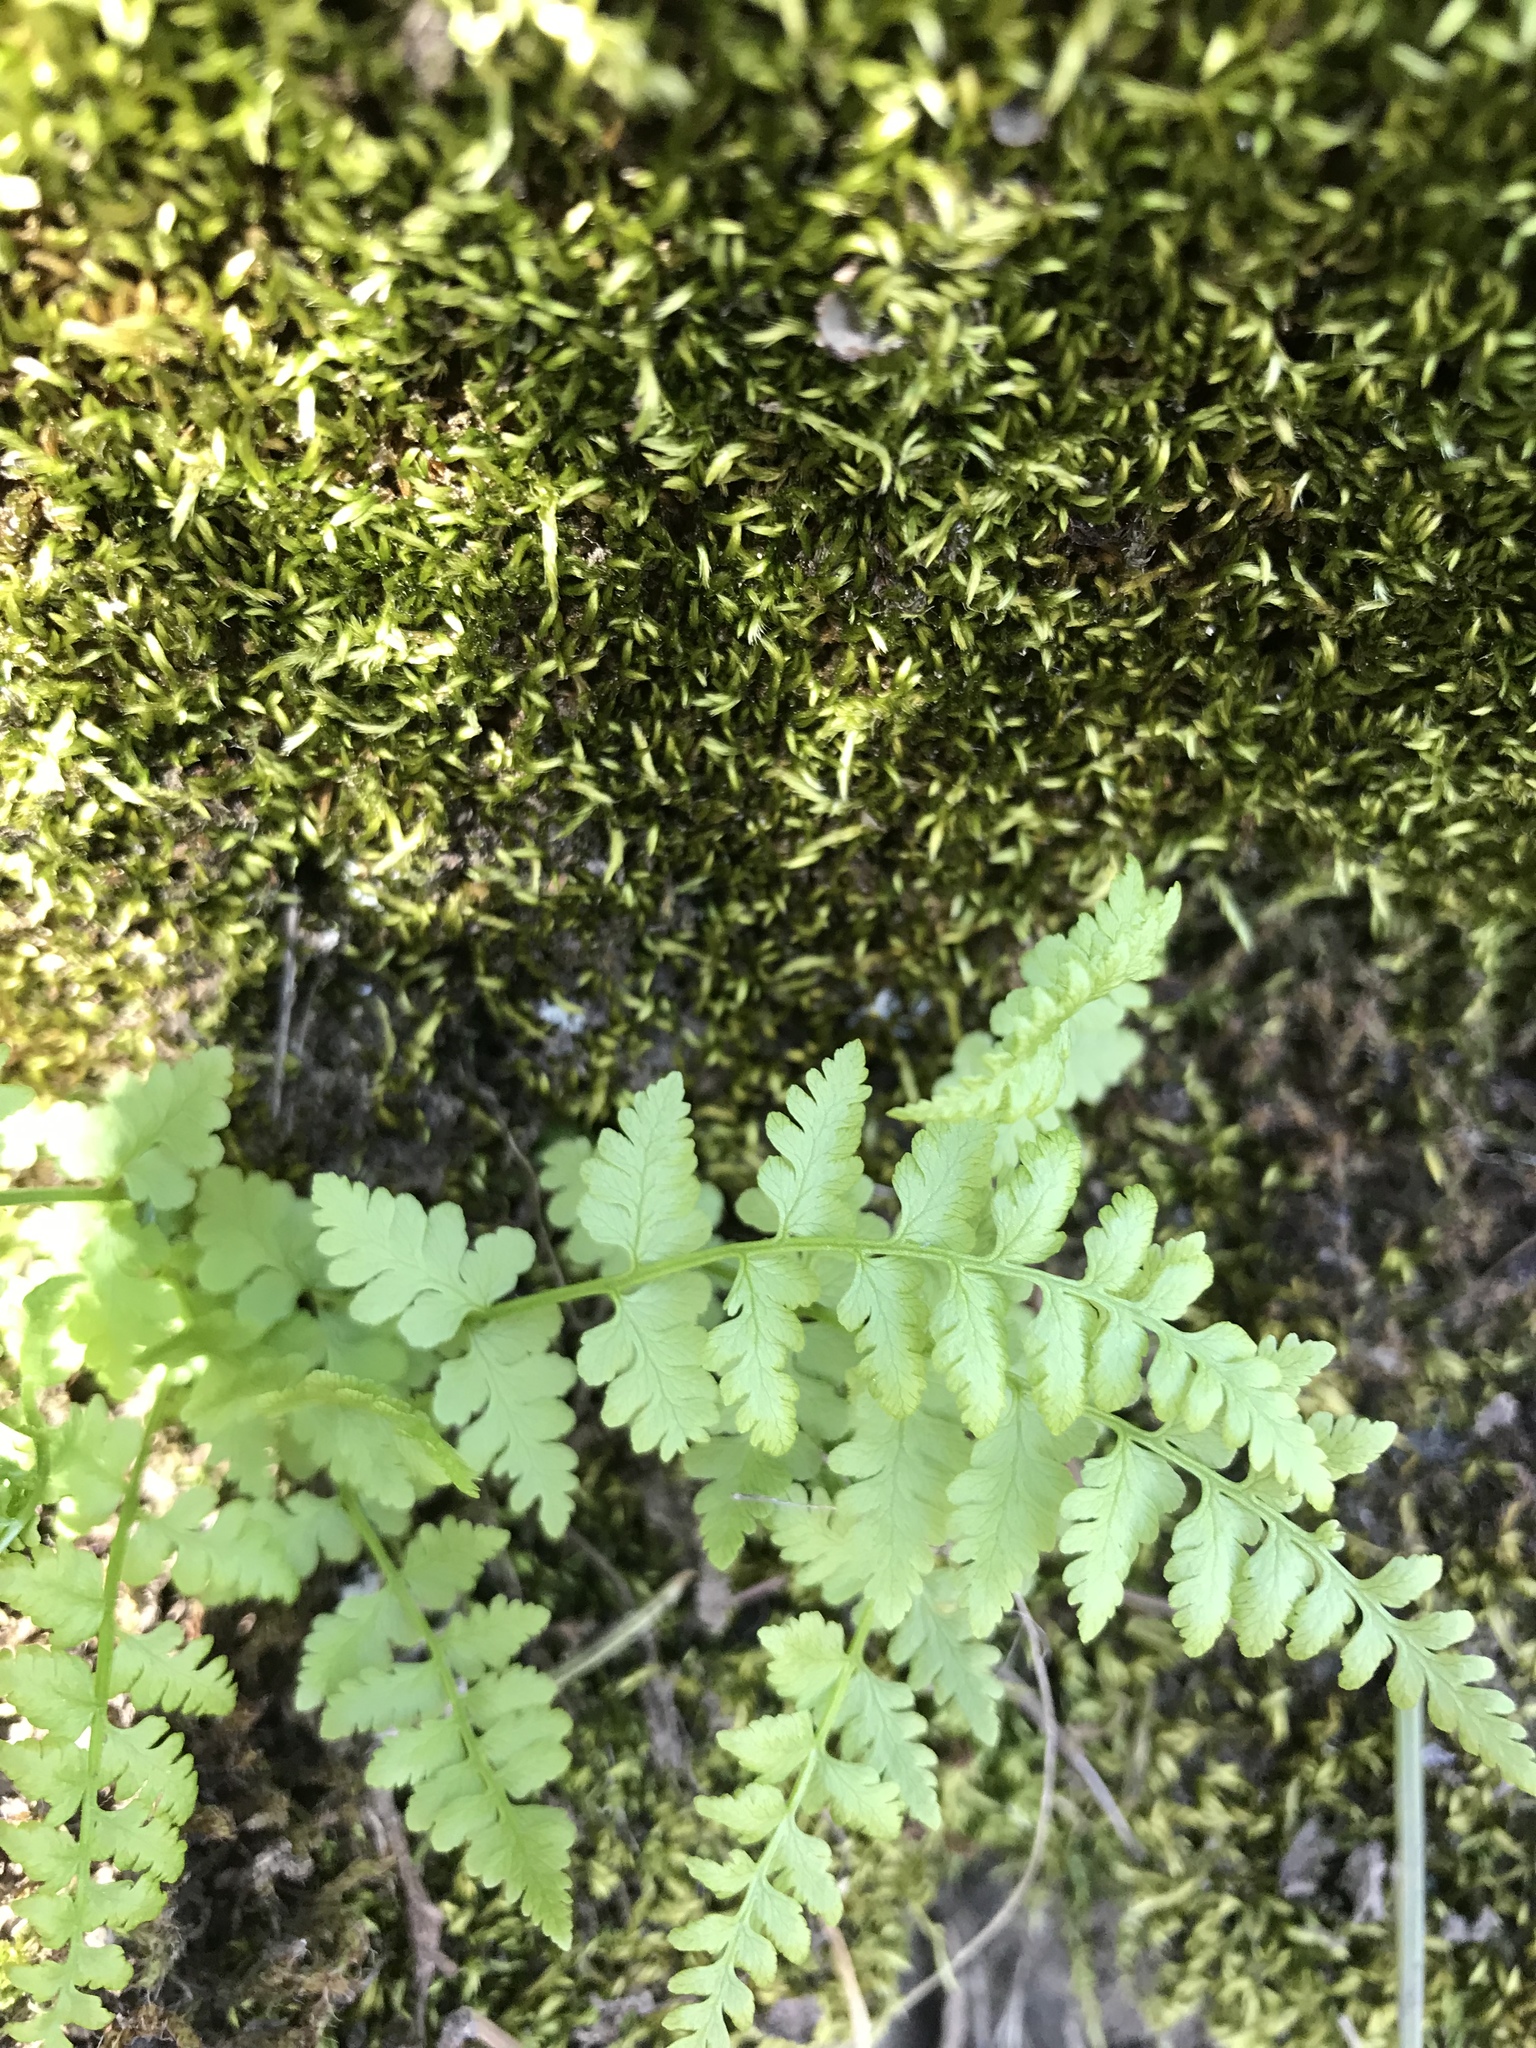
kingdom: Plantae
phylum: Tracheophyta
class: Polypodiopsida
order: Polypodiales
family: Cystopteridaceae
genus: Cystopteris
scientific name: Cystopteris fragilis
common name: Brittle bladder fern
